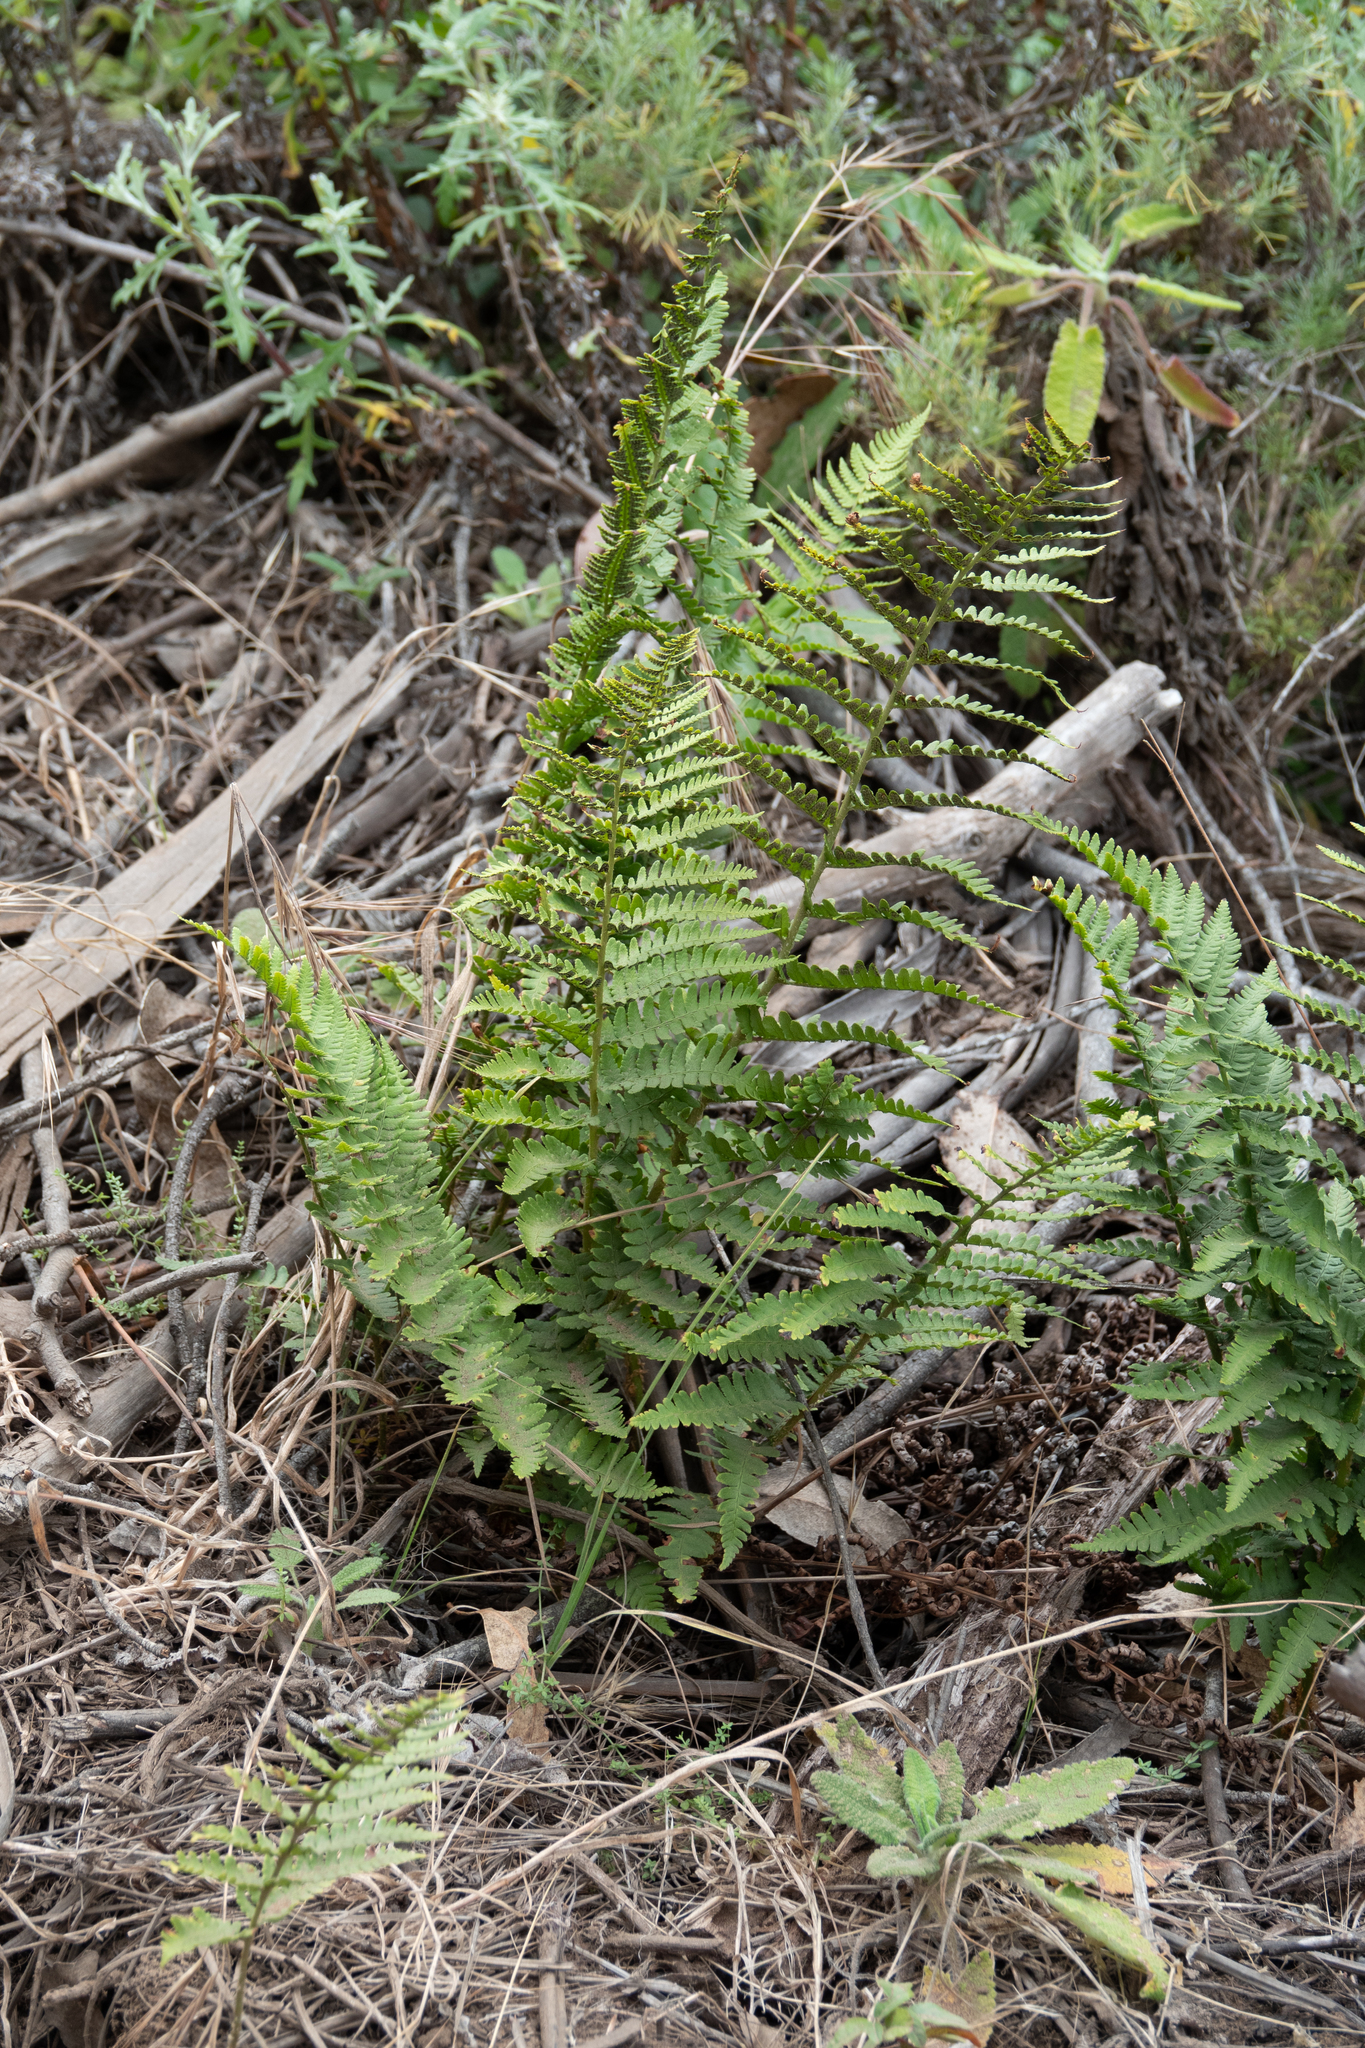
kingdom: Plantae
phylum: Tracheophyta
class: Polypodiopsida
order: Polypodiales
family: Dryopteridaceae
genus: Dryopteris
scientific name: Dryopteris arguta
